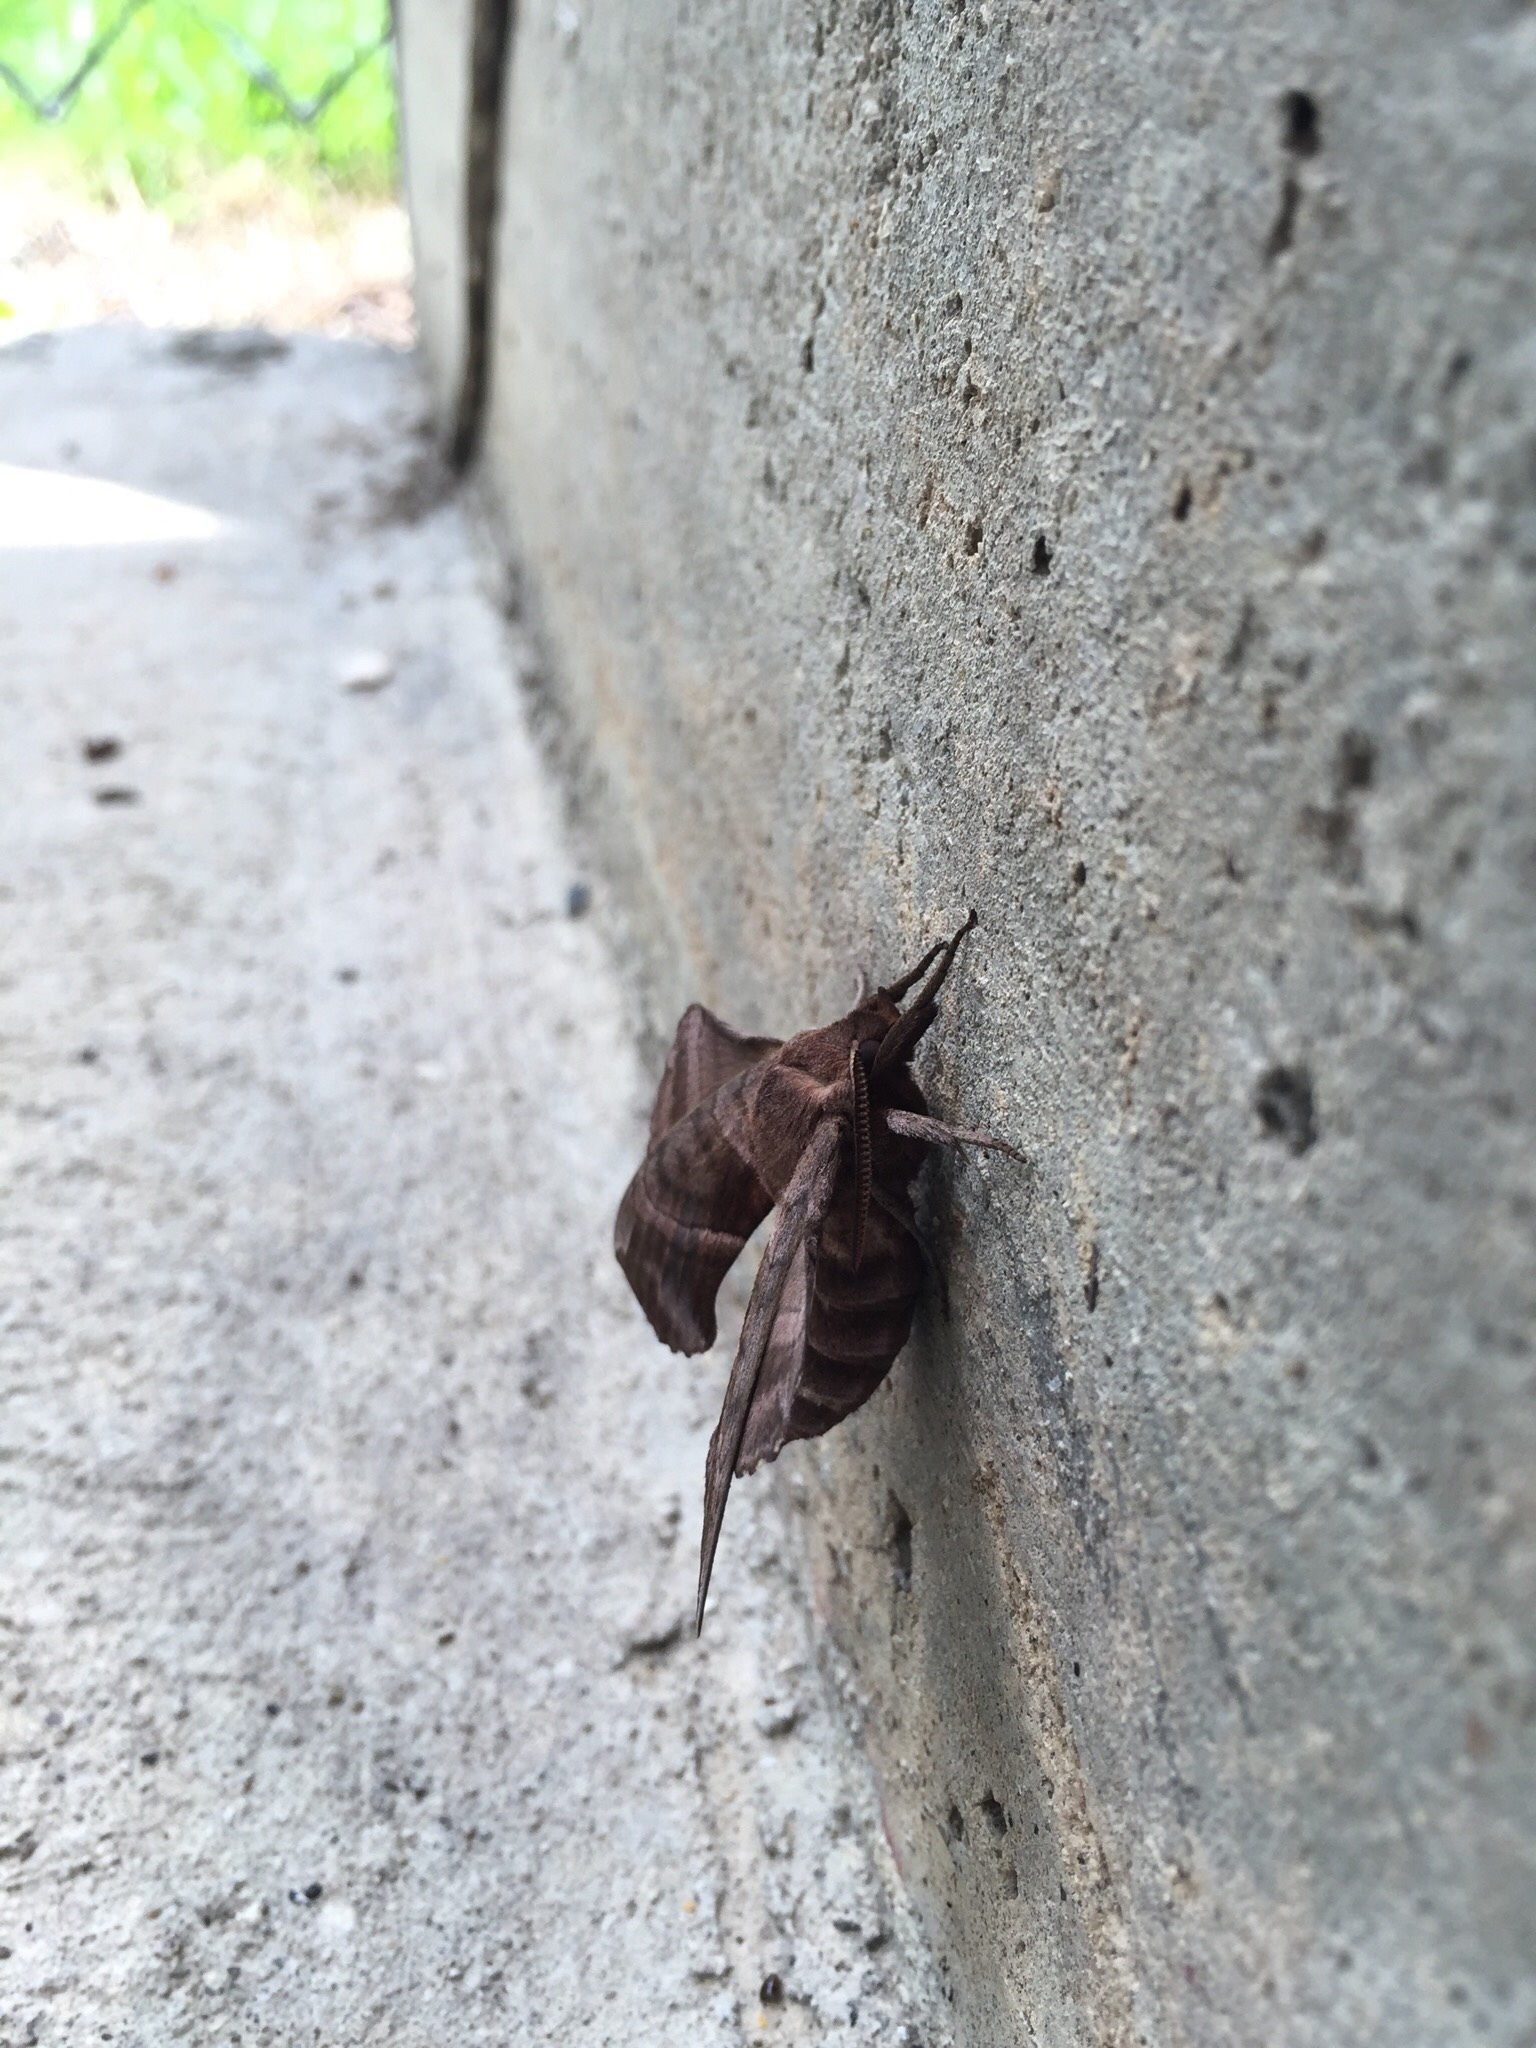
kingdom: Animalia
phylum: Arthropoda
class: Insecta
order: Lepidoptera
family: Sphingidae
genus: Amorpha
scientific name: Amorpha juglandis
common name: Walnut sphinx
